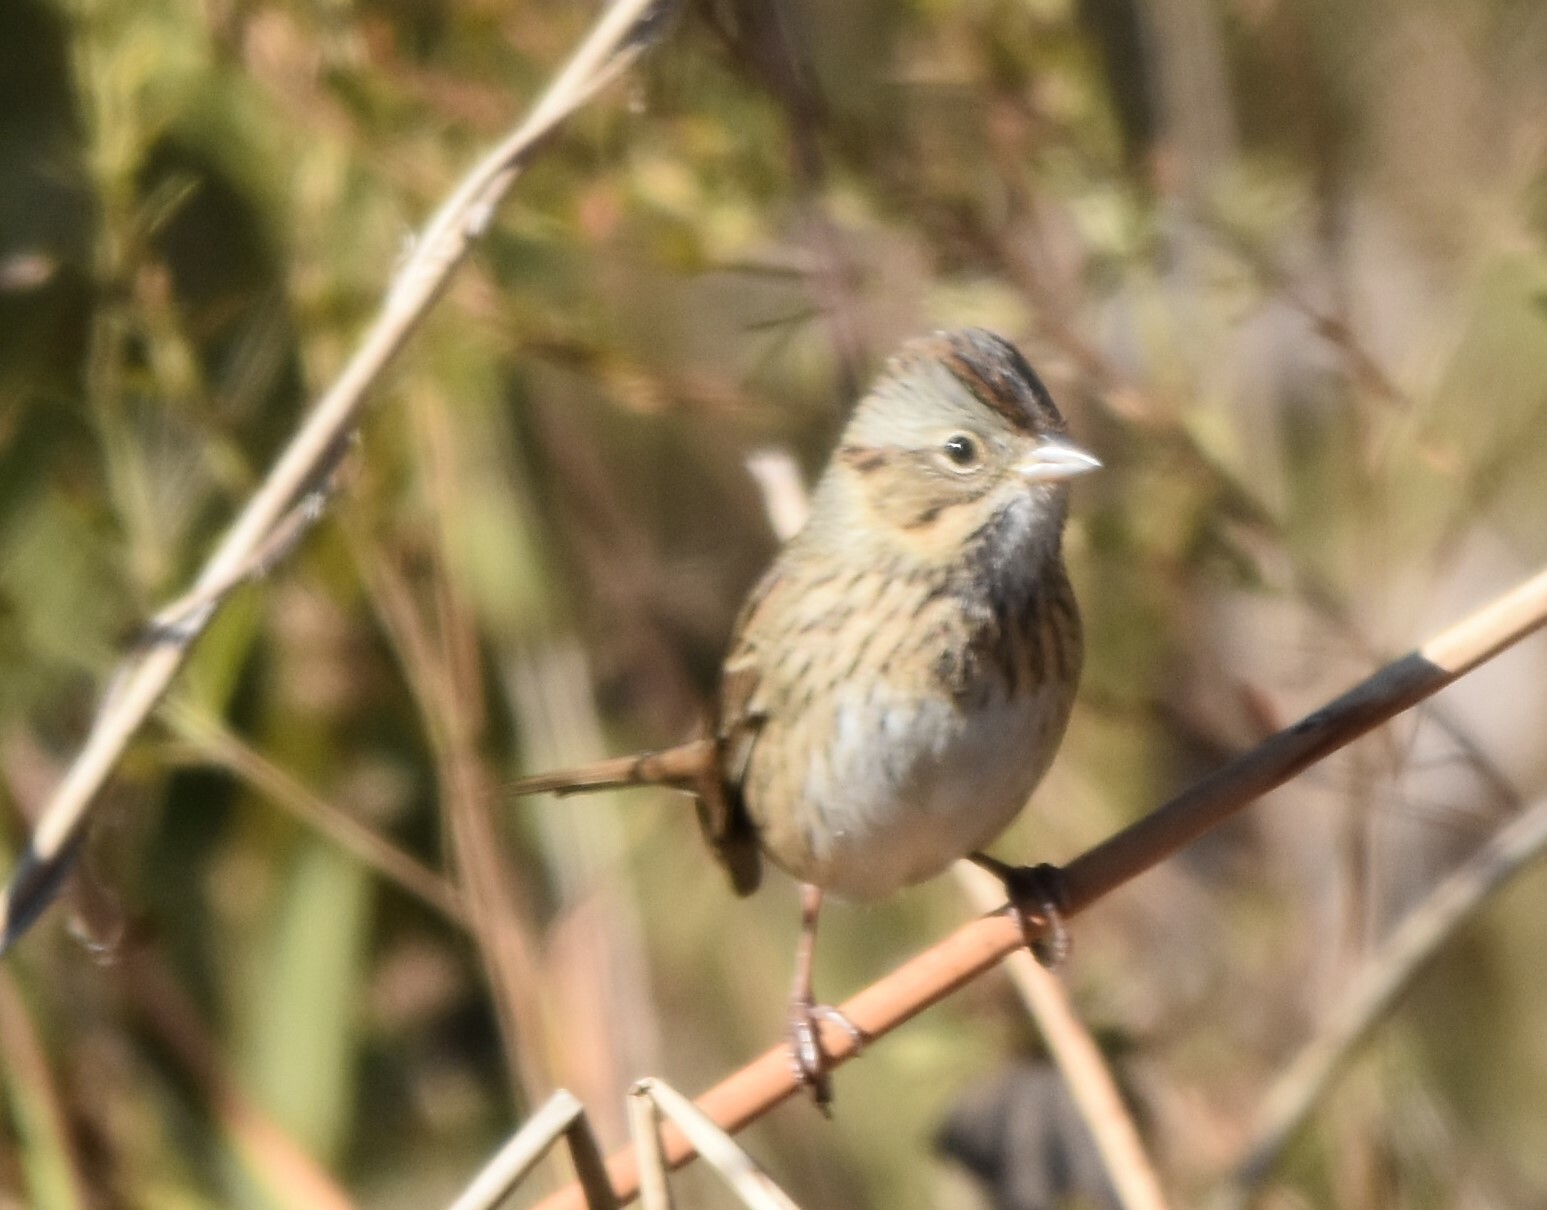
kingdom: Animalia
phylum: Chordata
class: Aves
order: Passeriformes
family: Passerellidae
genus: Melospiza
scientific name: Melospiza lincolnii
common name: Lincoln's sparrow
